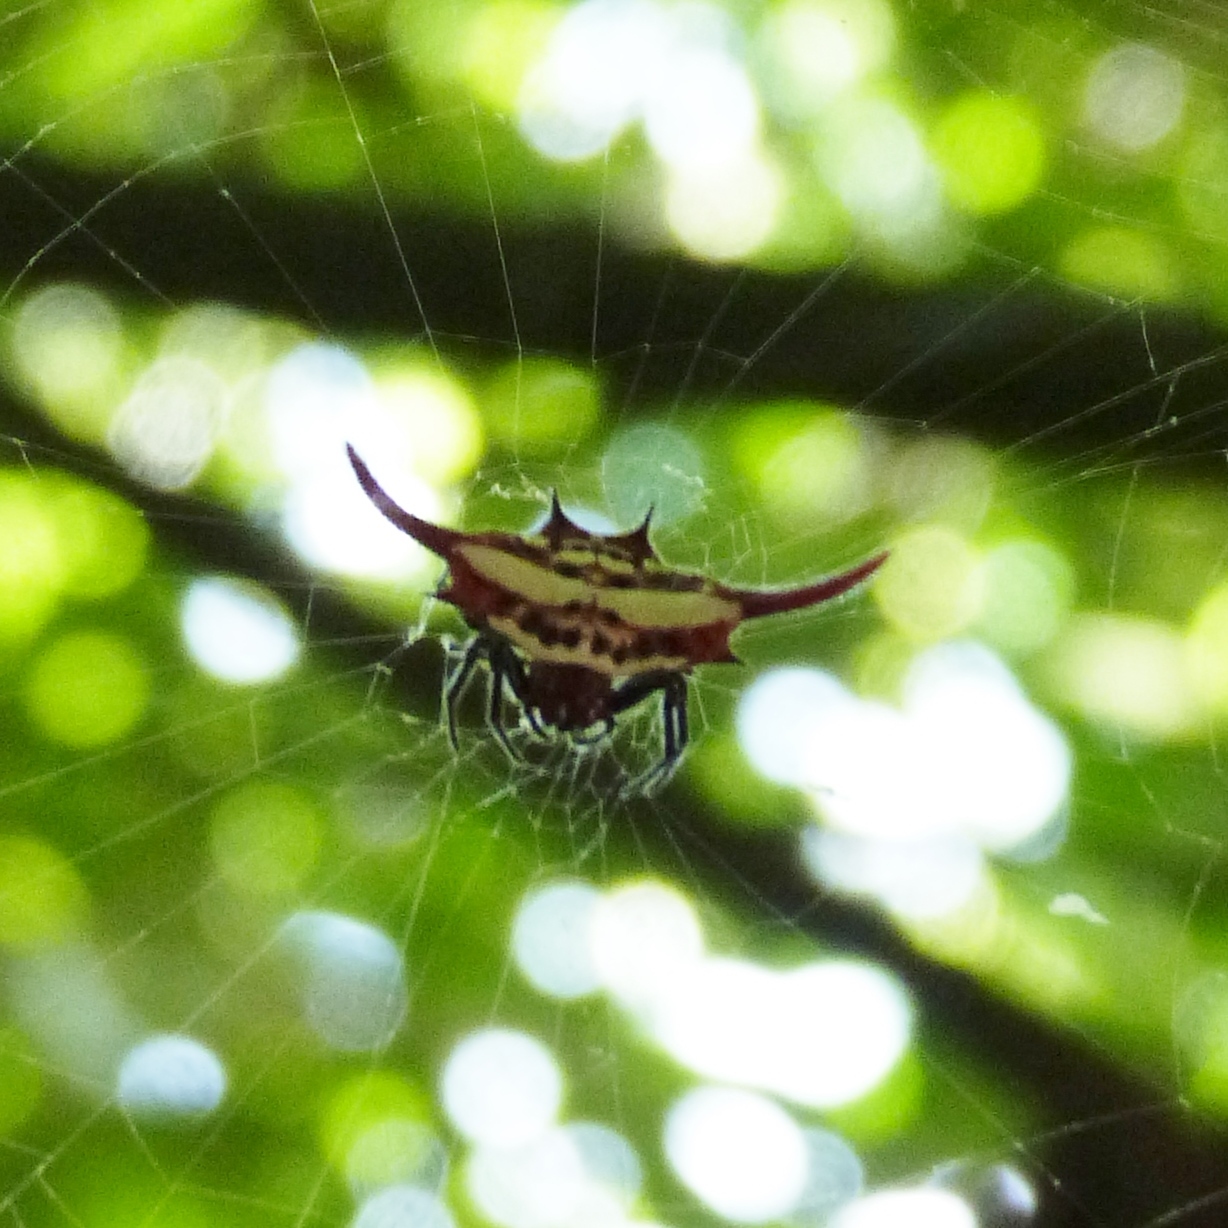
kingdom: Animalia
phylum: Arthropoda
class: Arachnida
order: Araneae
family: Araneidae
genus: Gasteracantha
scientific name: Gasteracantha milvoides
